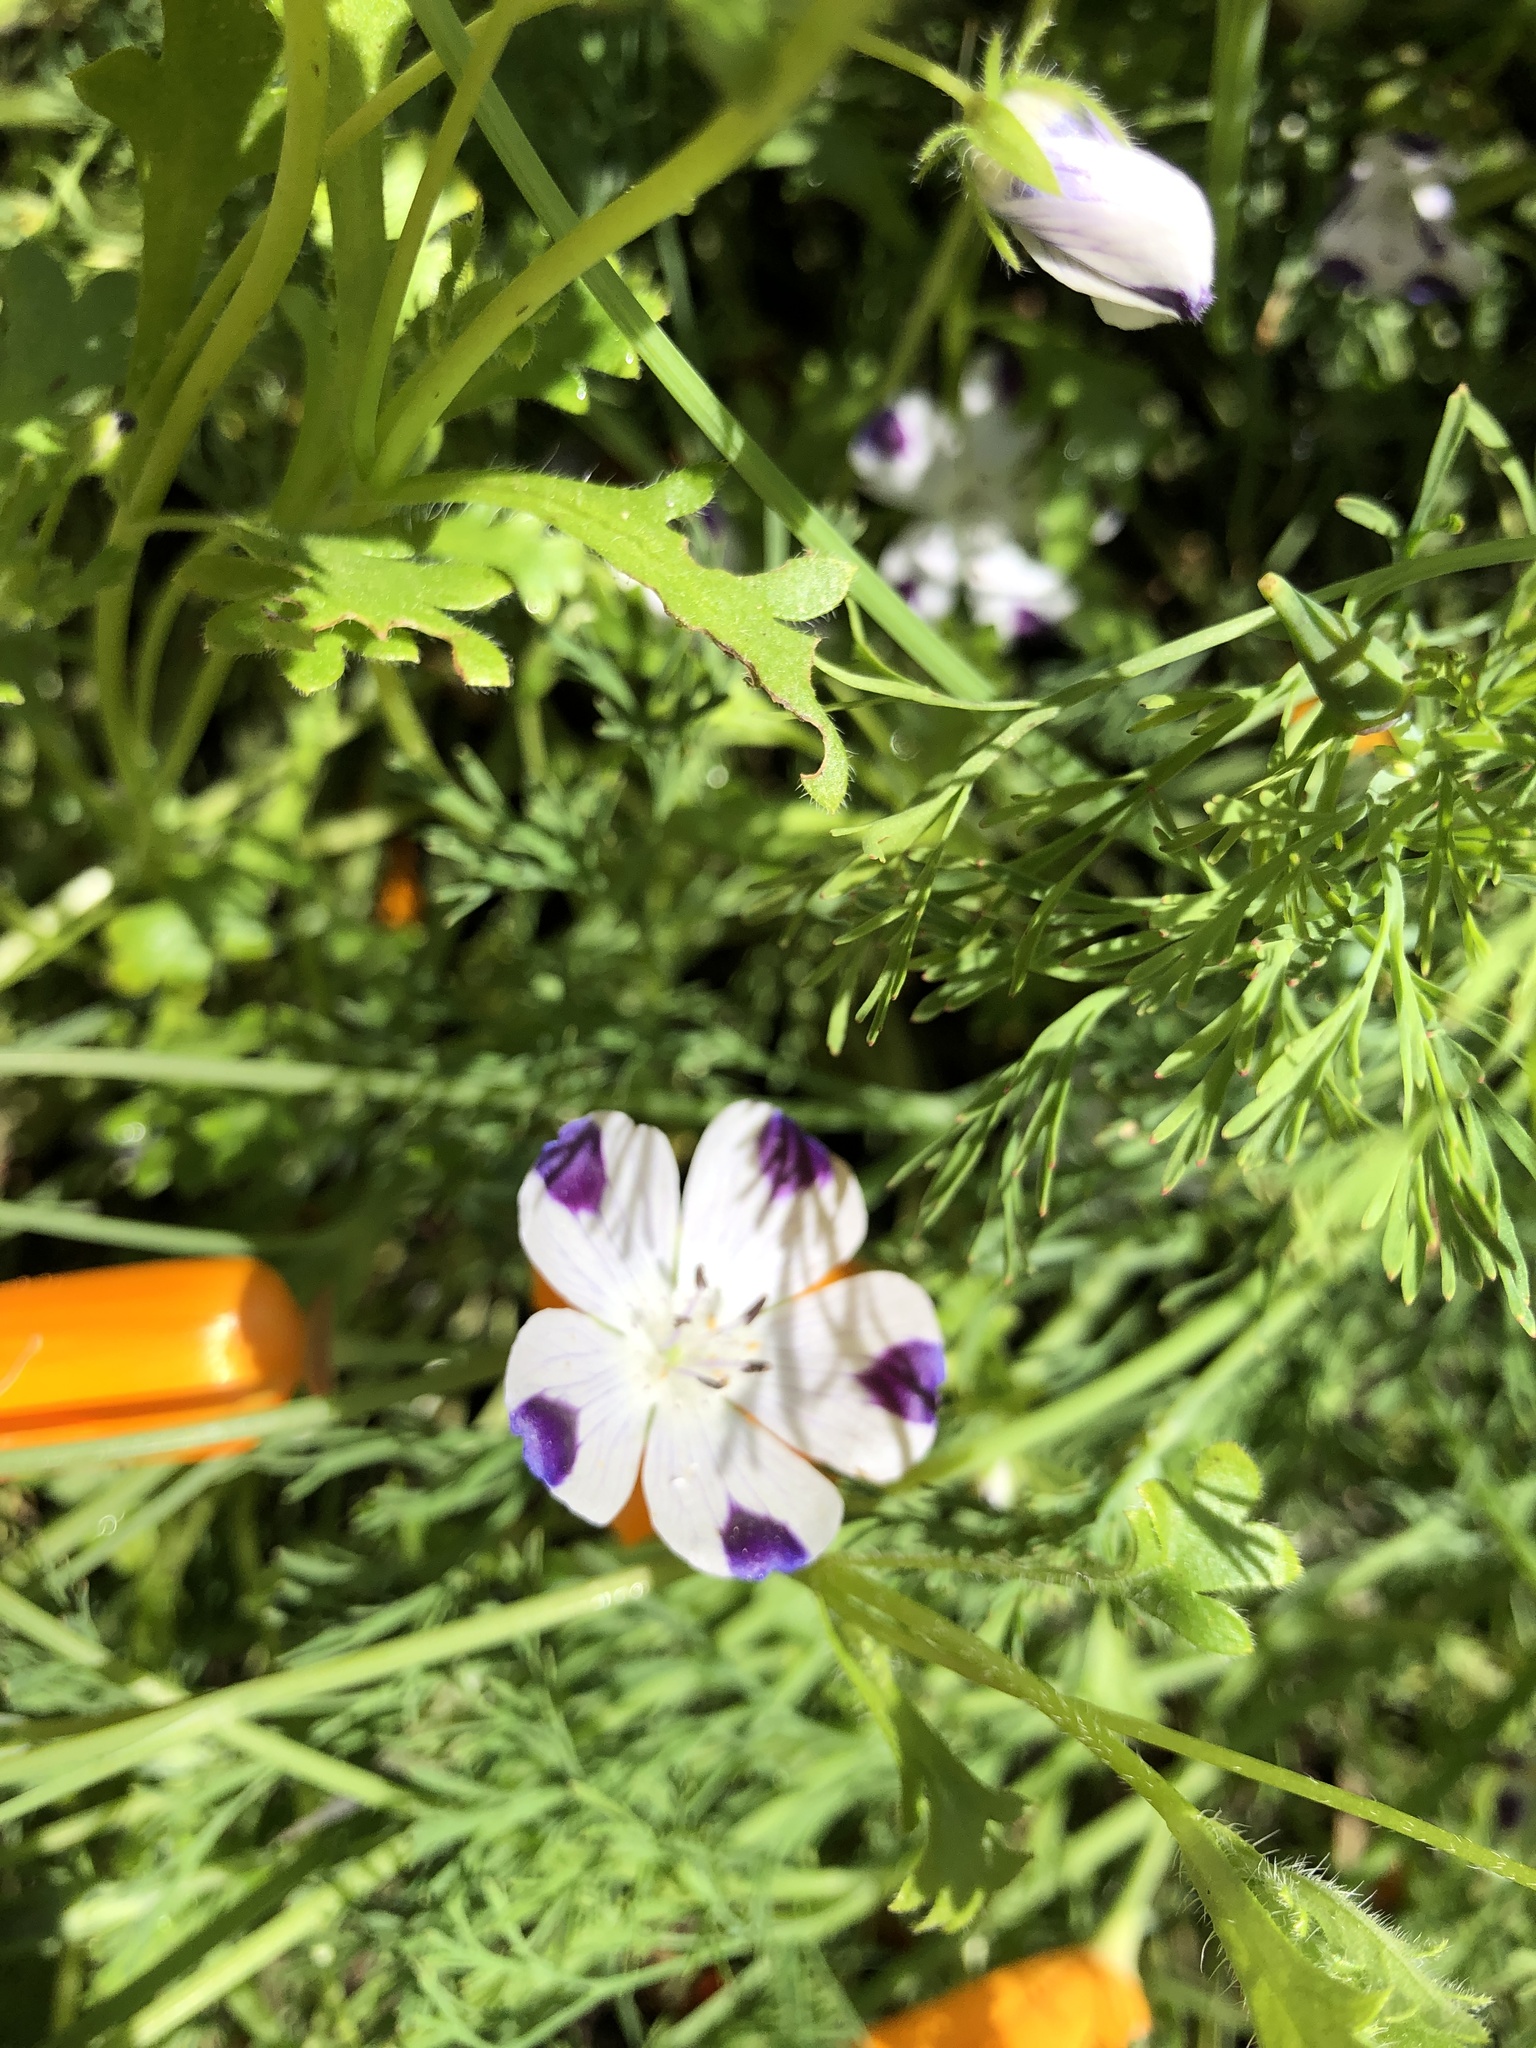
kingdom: Plantae
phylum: Tracheophyta
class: Magnoliopsida
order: Boraginales
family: Hydrophyllaceae
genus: Nemophila
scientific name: Nemophila maculata
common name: Fivespot
